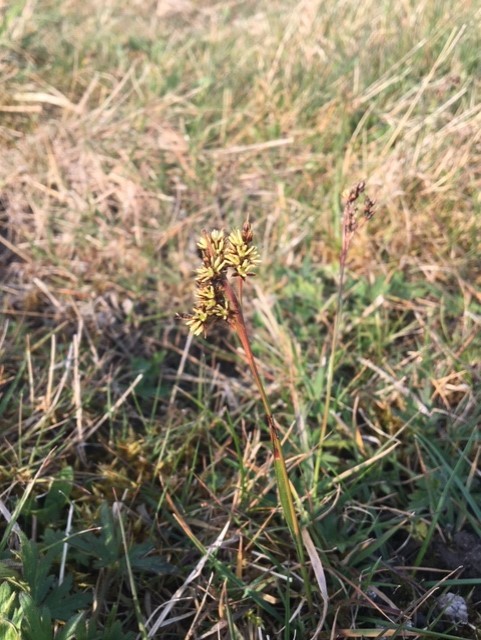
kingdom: Plantae
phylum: Tracheophyta
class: Liliopsida
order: Poales
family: Juncaceae
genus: Luzula
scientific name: Luzula campestris
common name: Field wood-rush
